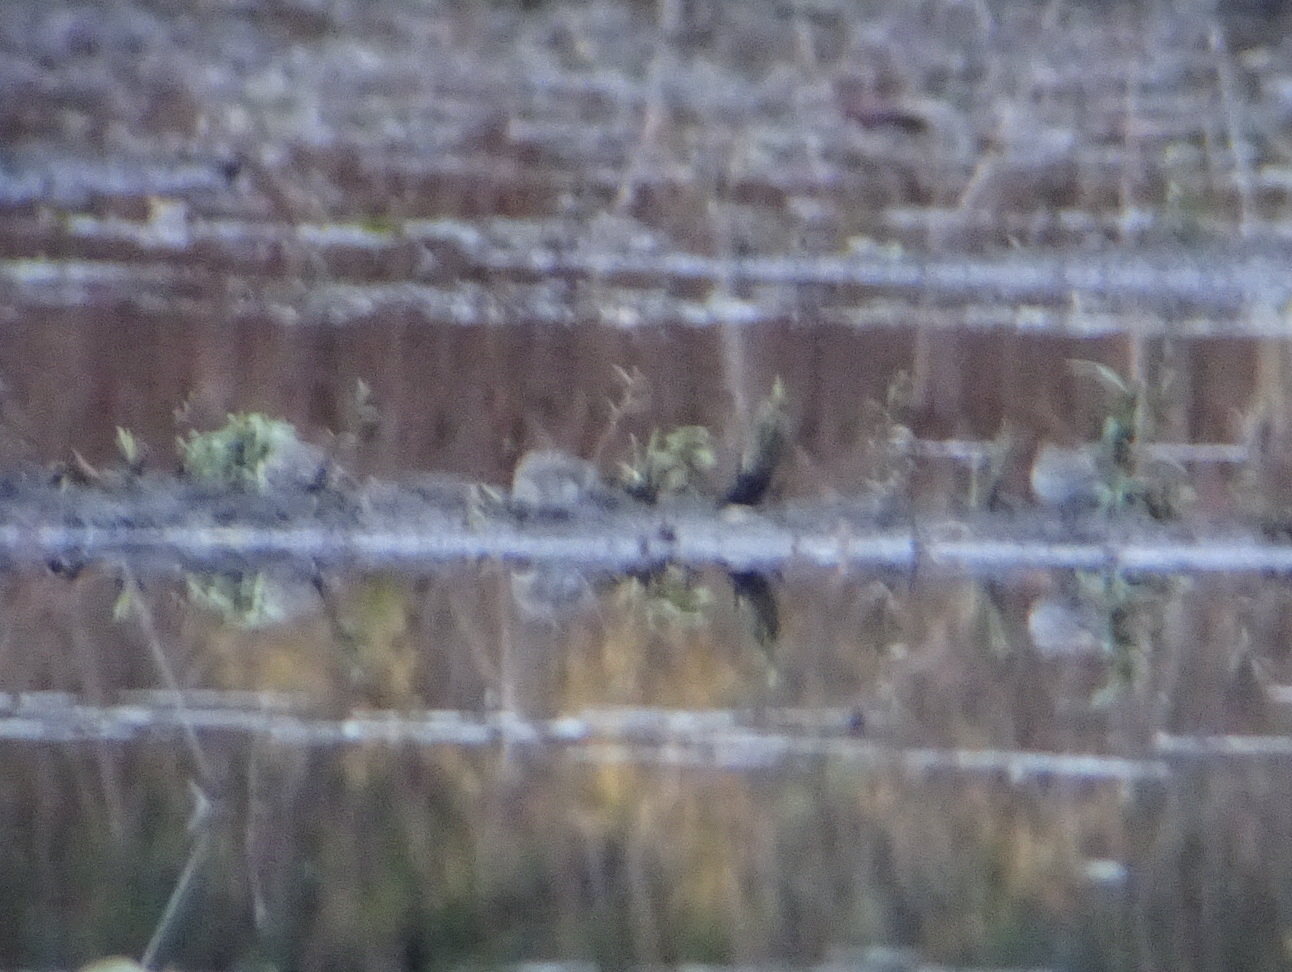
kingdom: Animalia
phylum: Chordata
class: Aves
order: Charadriiformes
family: Scolopacidae
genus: Calidris
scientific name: Calidris alpina
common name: Dunlin
